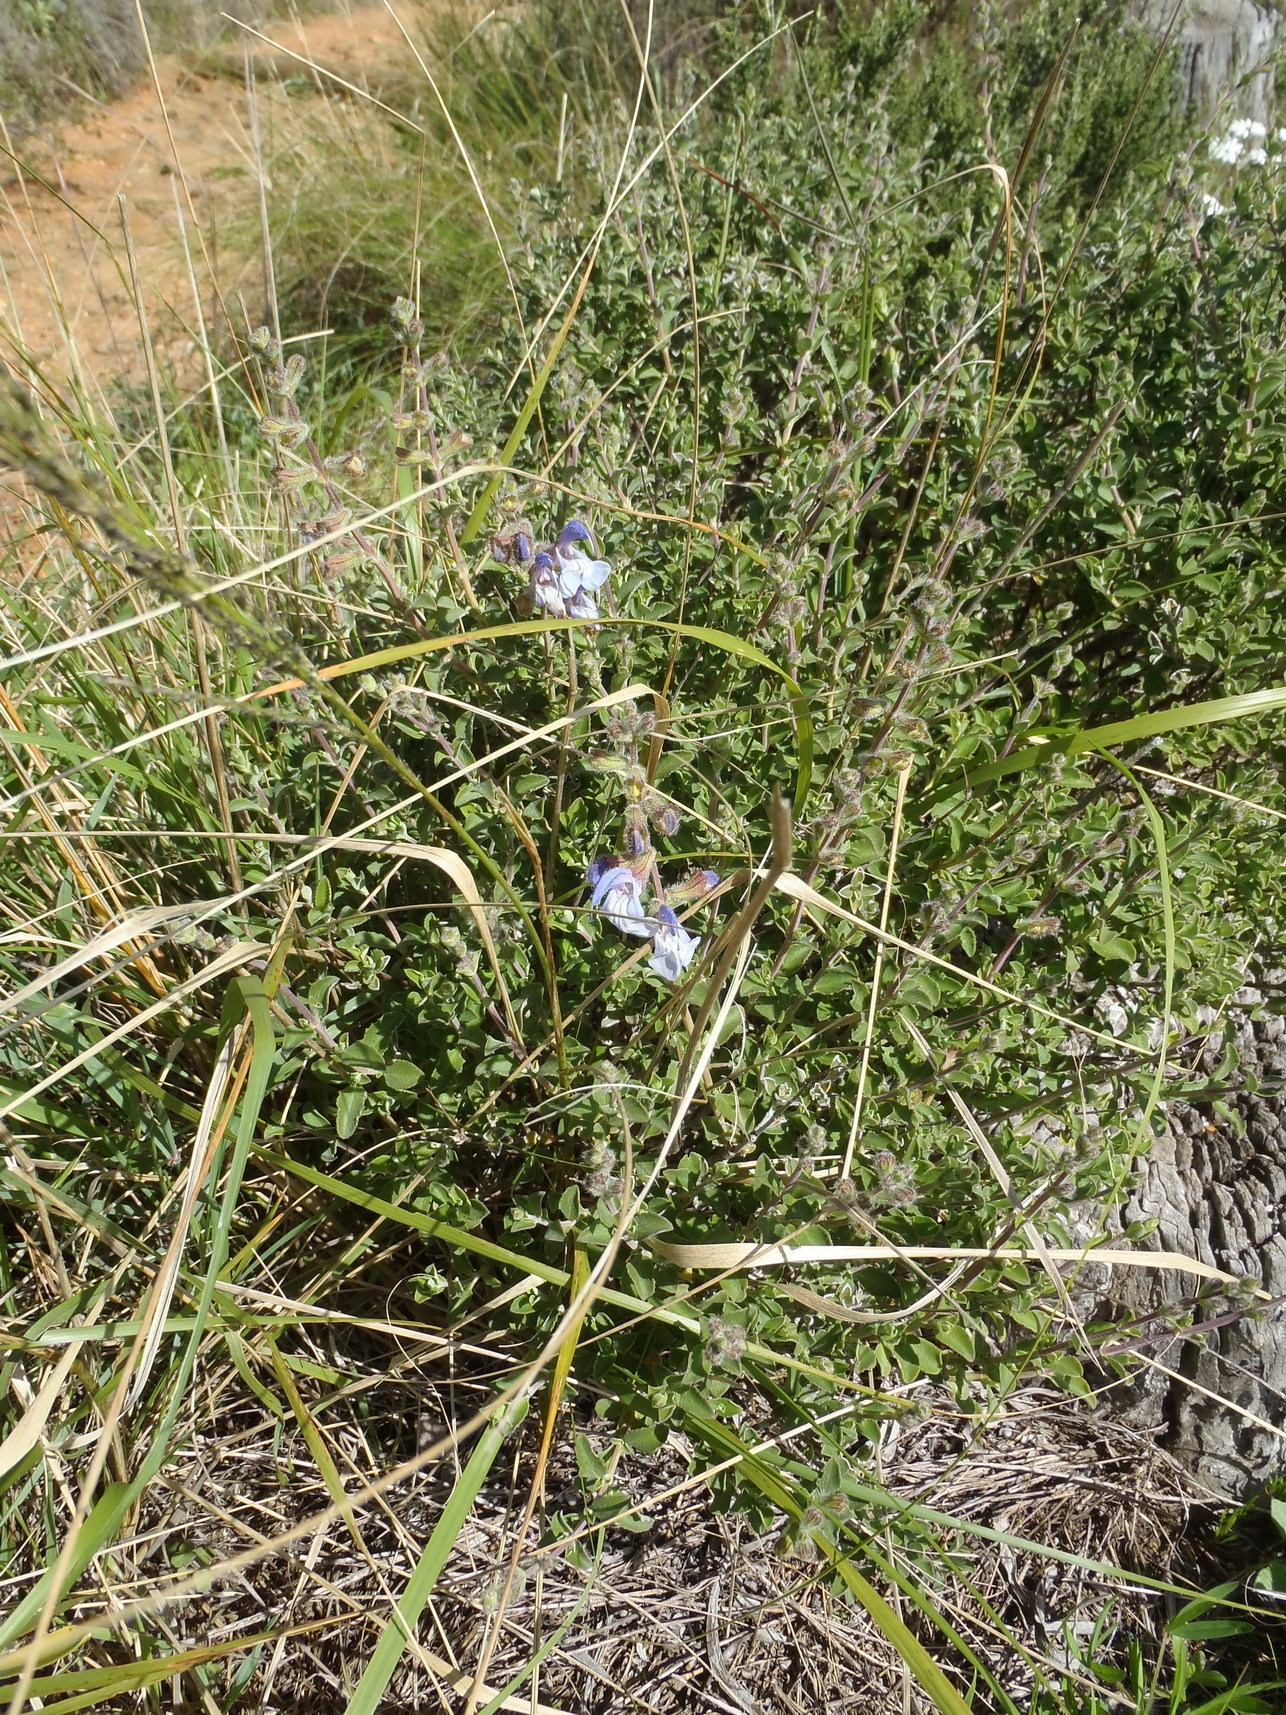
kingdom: Plantae
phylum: Tracheophyta
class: Magnoliopsida
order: Lamiales
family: Lamiaceae
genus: Salvia
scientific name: Salvia africana
